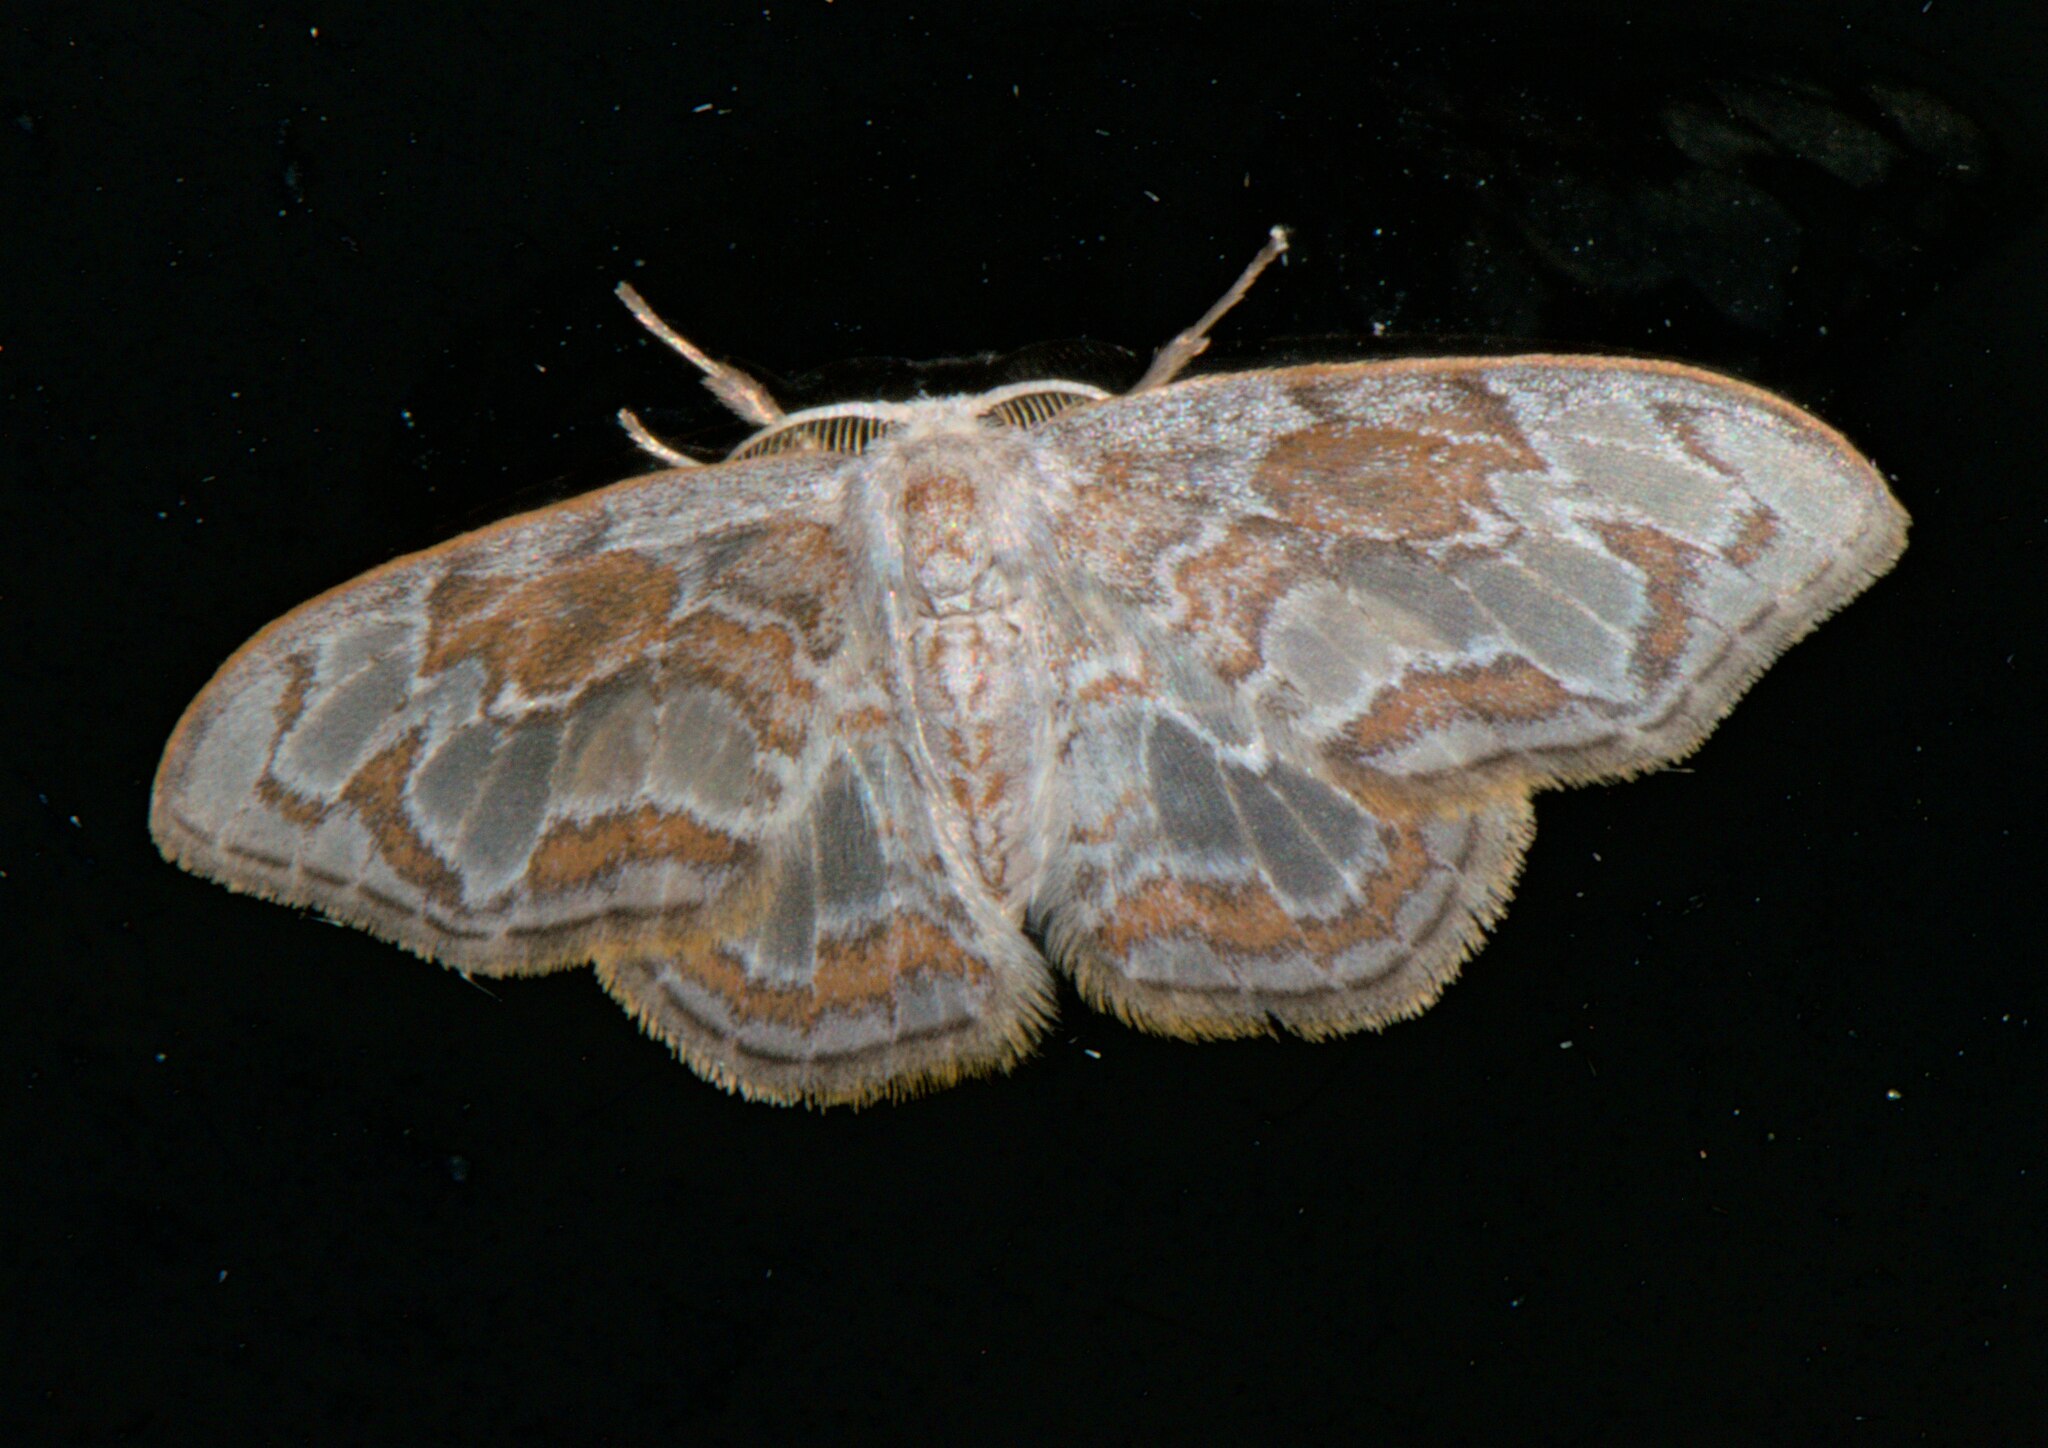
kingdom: Animalia
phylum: Arthropoda
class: Insecta
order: Lepidoptera
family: Drepanidae
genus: Auzatellodes
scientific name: Auzatellodes
